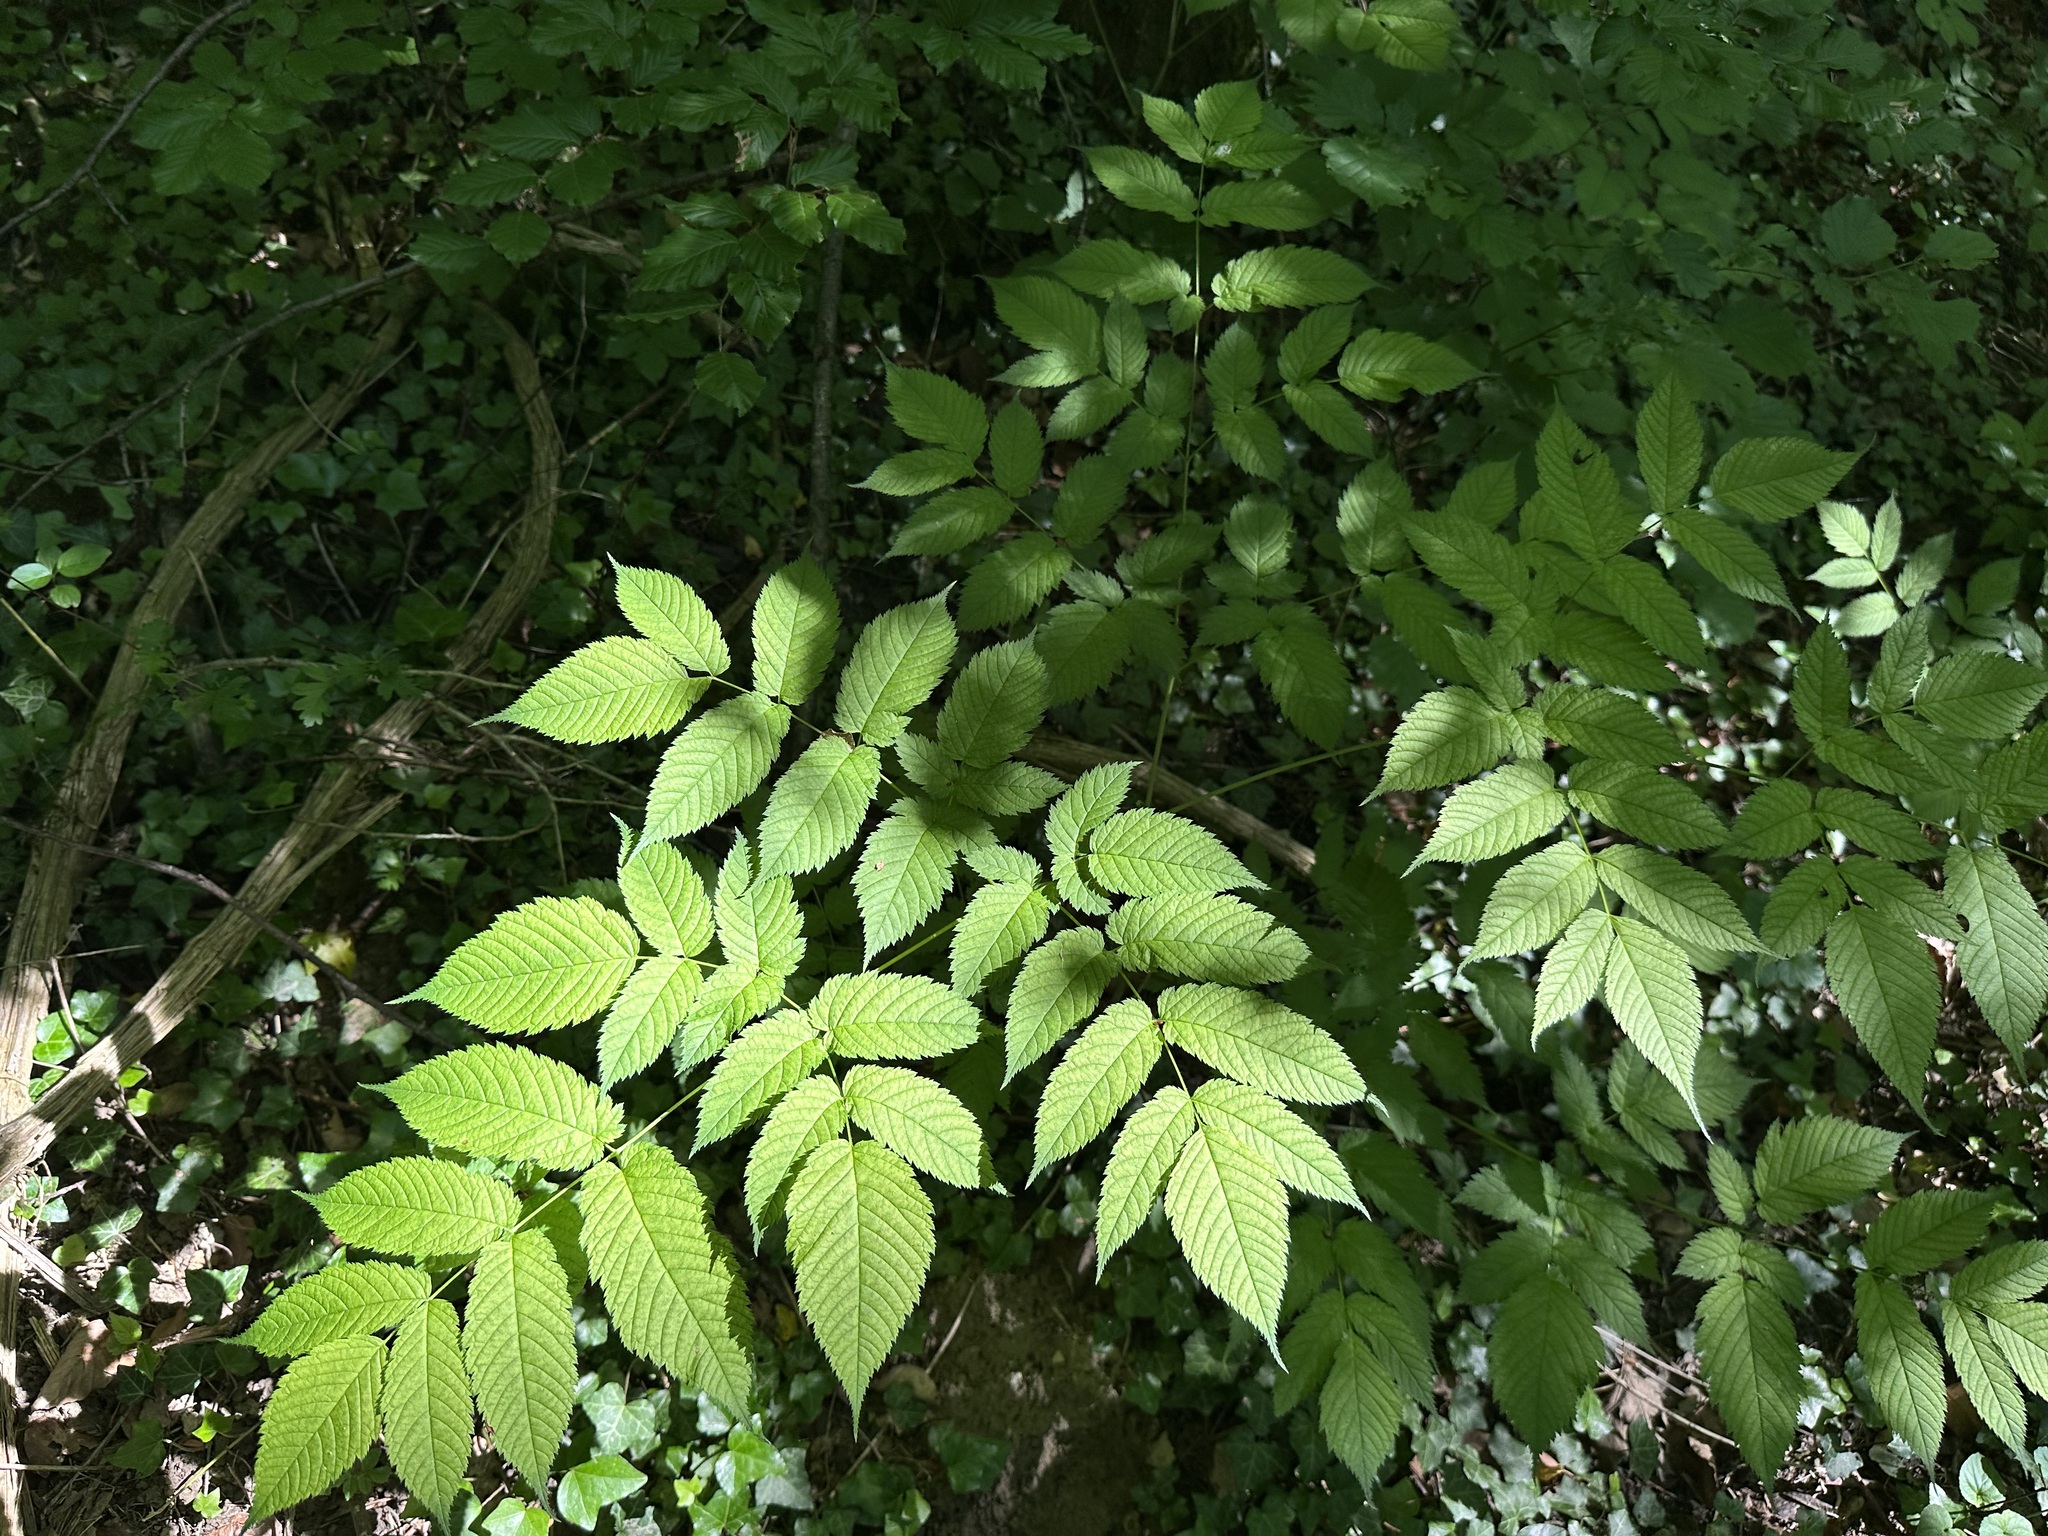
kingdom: Plantae
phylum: Tracheophyta
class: Magnoliopsida
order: Rosales
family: Rosaceae
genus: Aruncus
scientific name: Aruncus dioicus
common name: Buck's-beard
